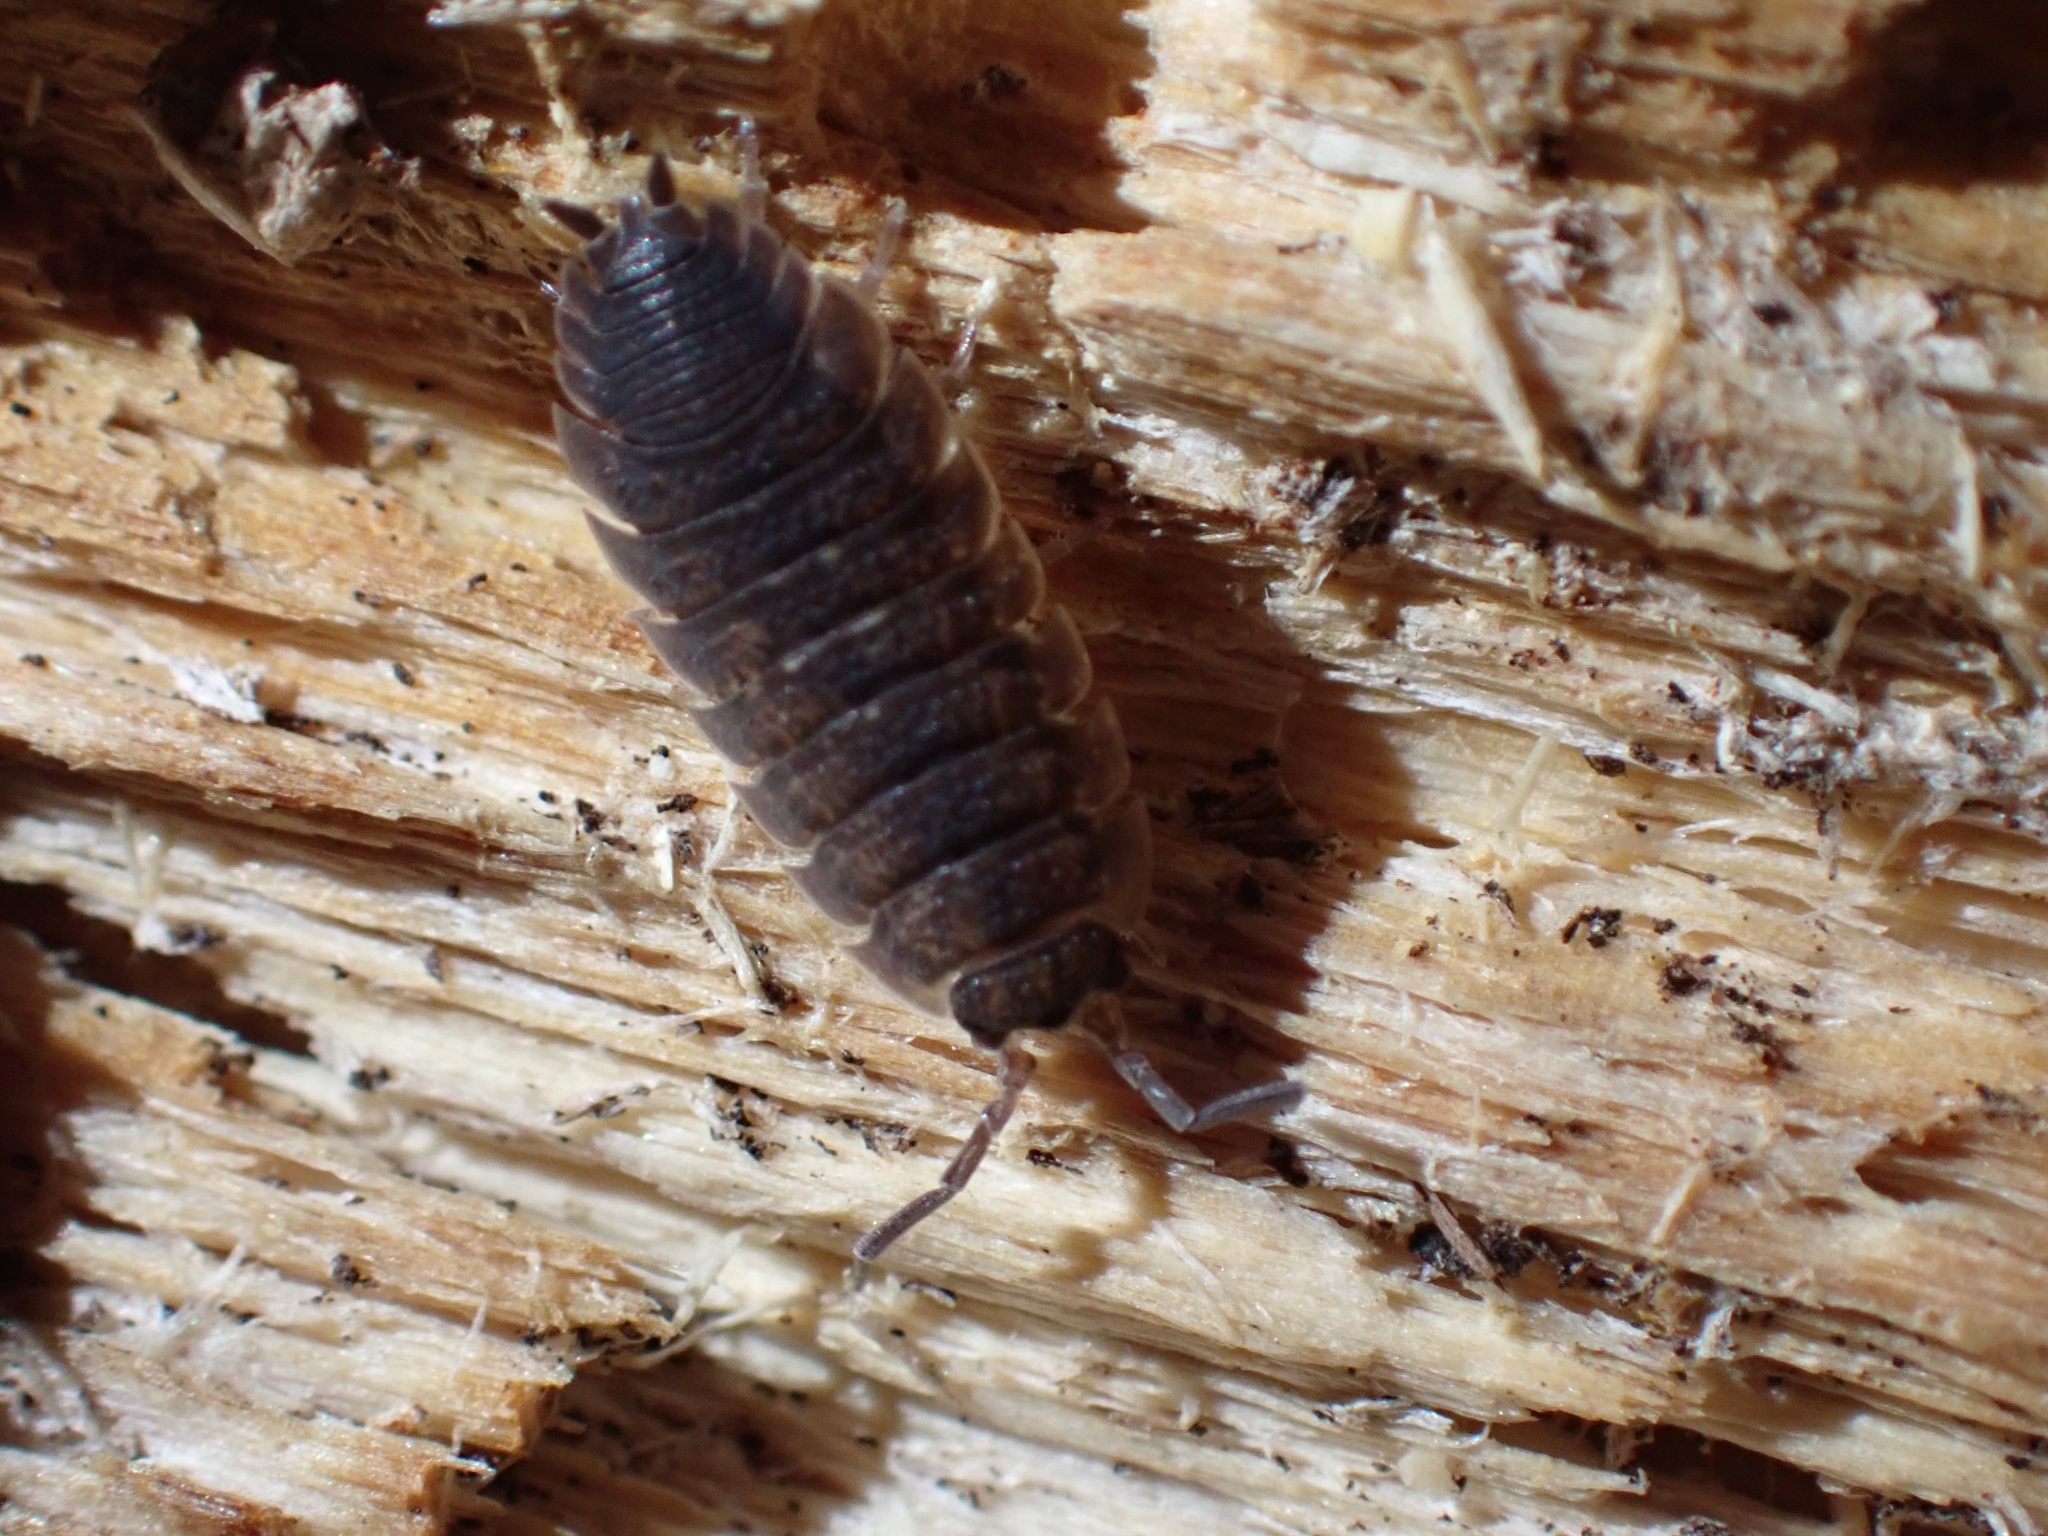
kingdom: Animalia
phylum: Arthropoda
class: Malacostraca
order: Isopoda
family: Porcellionidae
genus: Porcellio
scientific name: Porcellio scaber
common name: Common rough woodlouse
